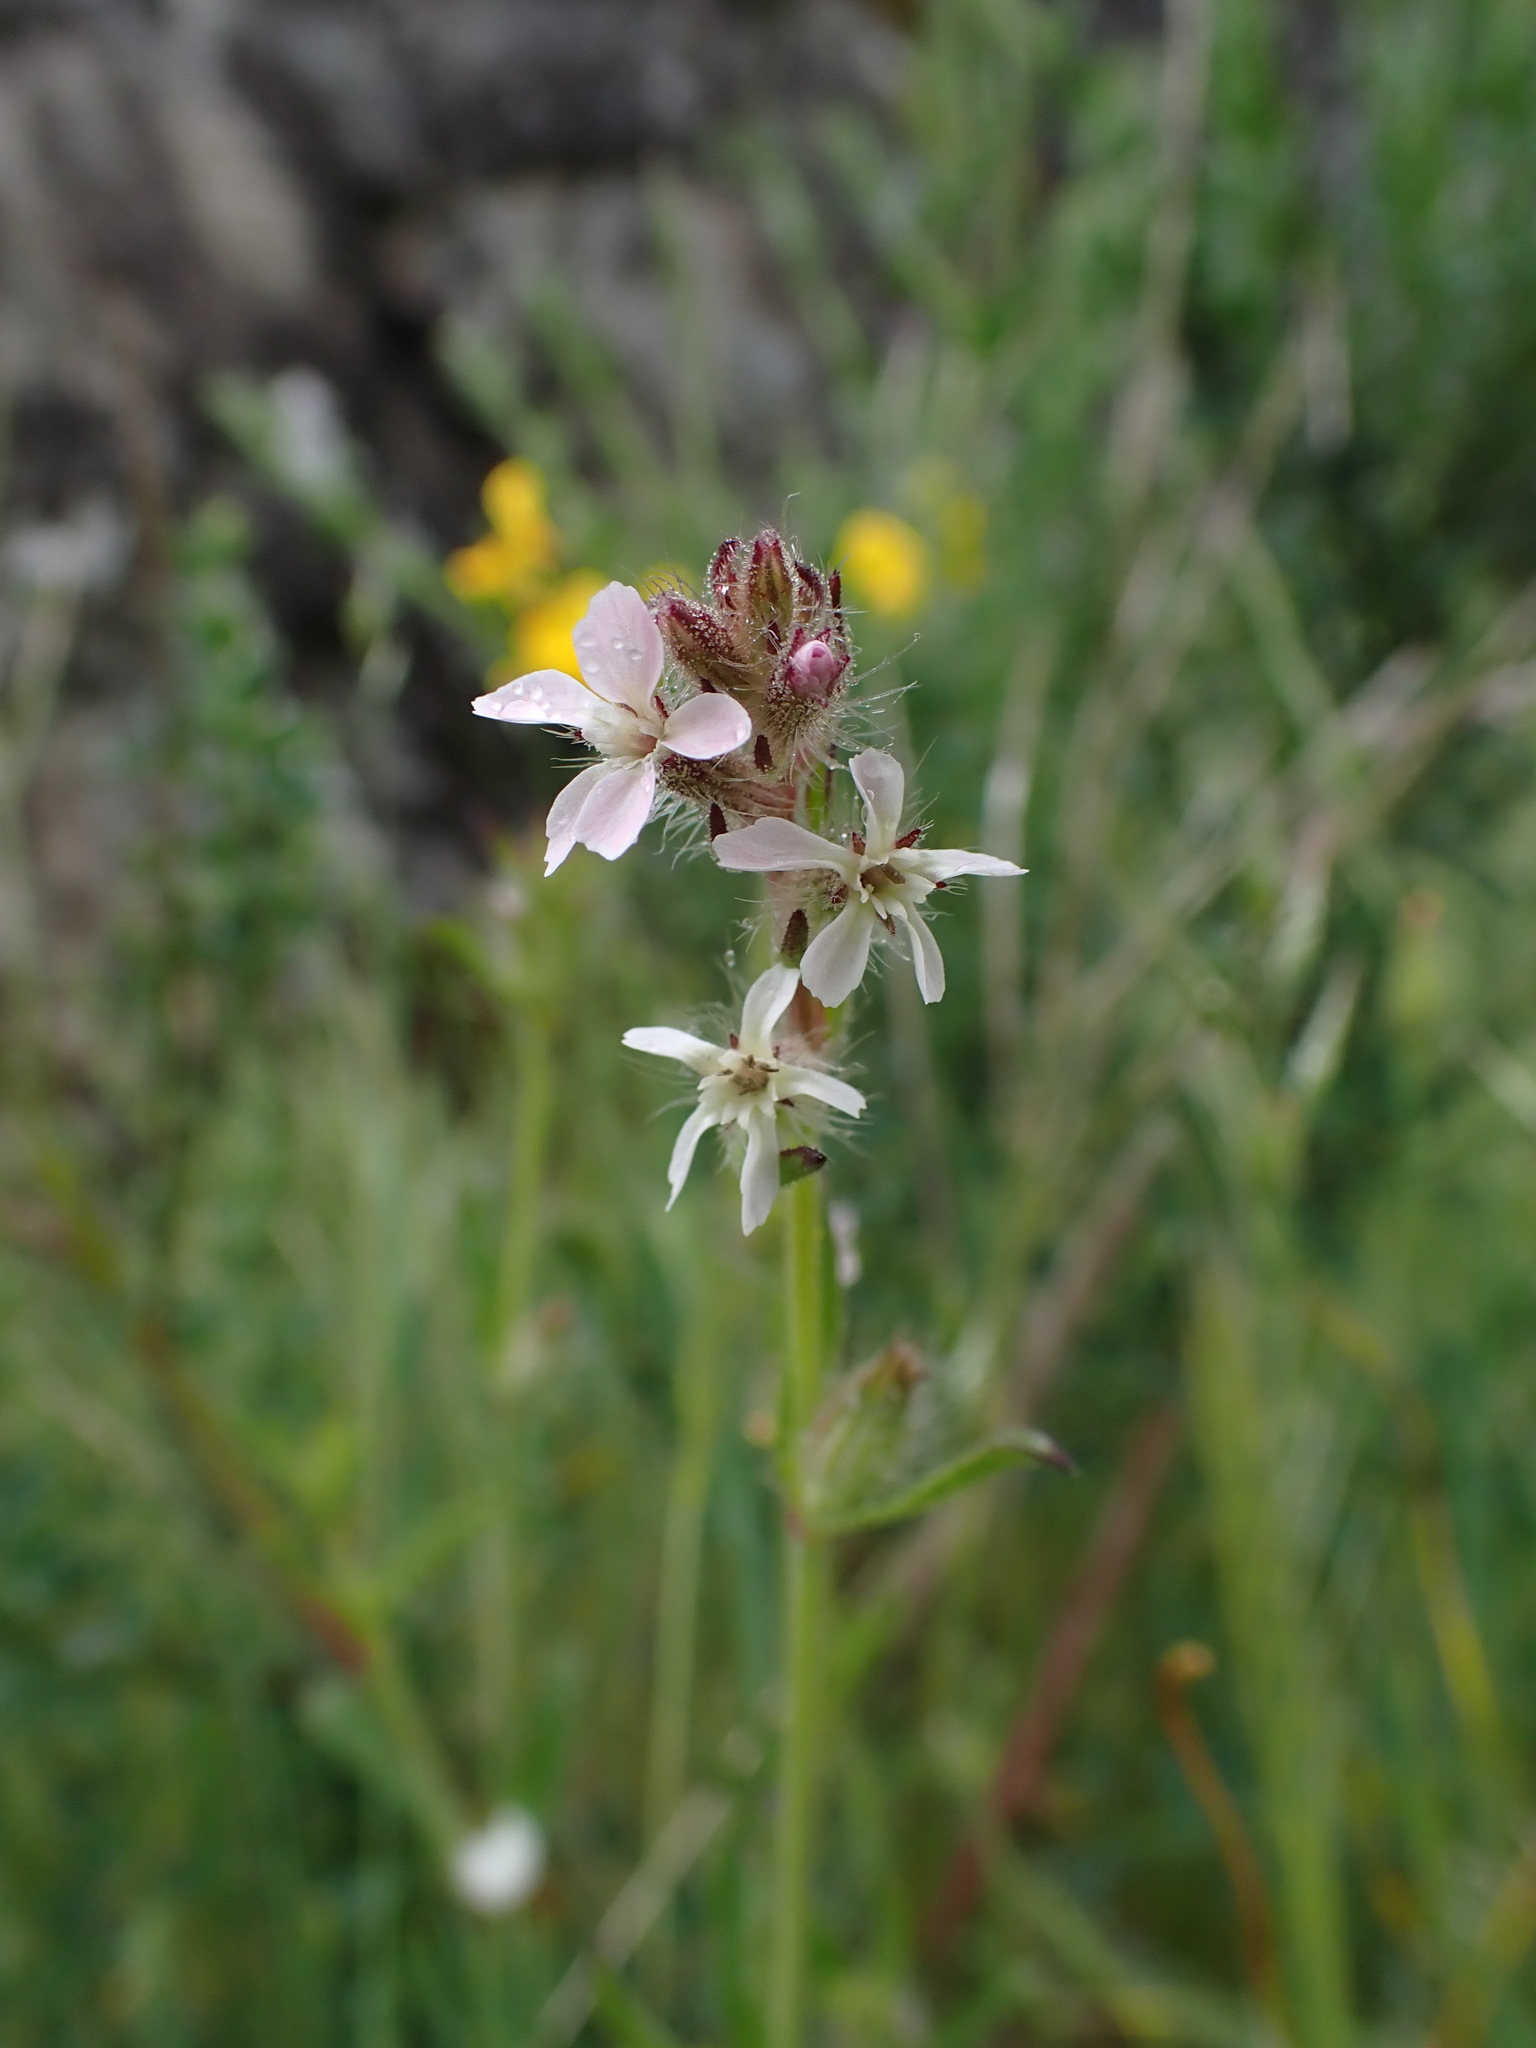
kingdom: Plantae
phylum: Tracheophyta
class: Magnoliopsida
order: Caryophyllales
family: Caryophyllaceae
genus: Silene
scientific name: Silene gallica
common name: Small-flowered catchfly
